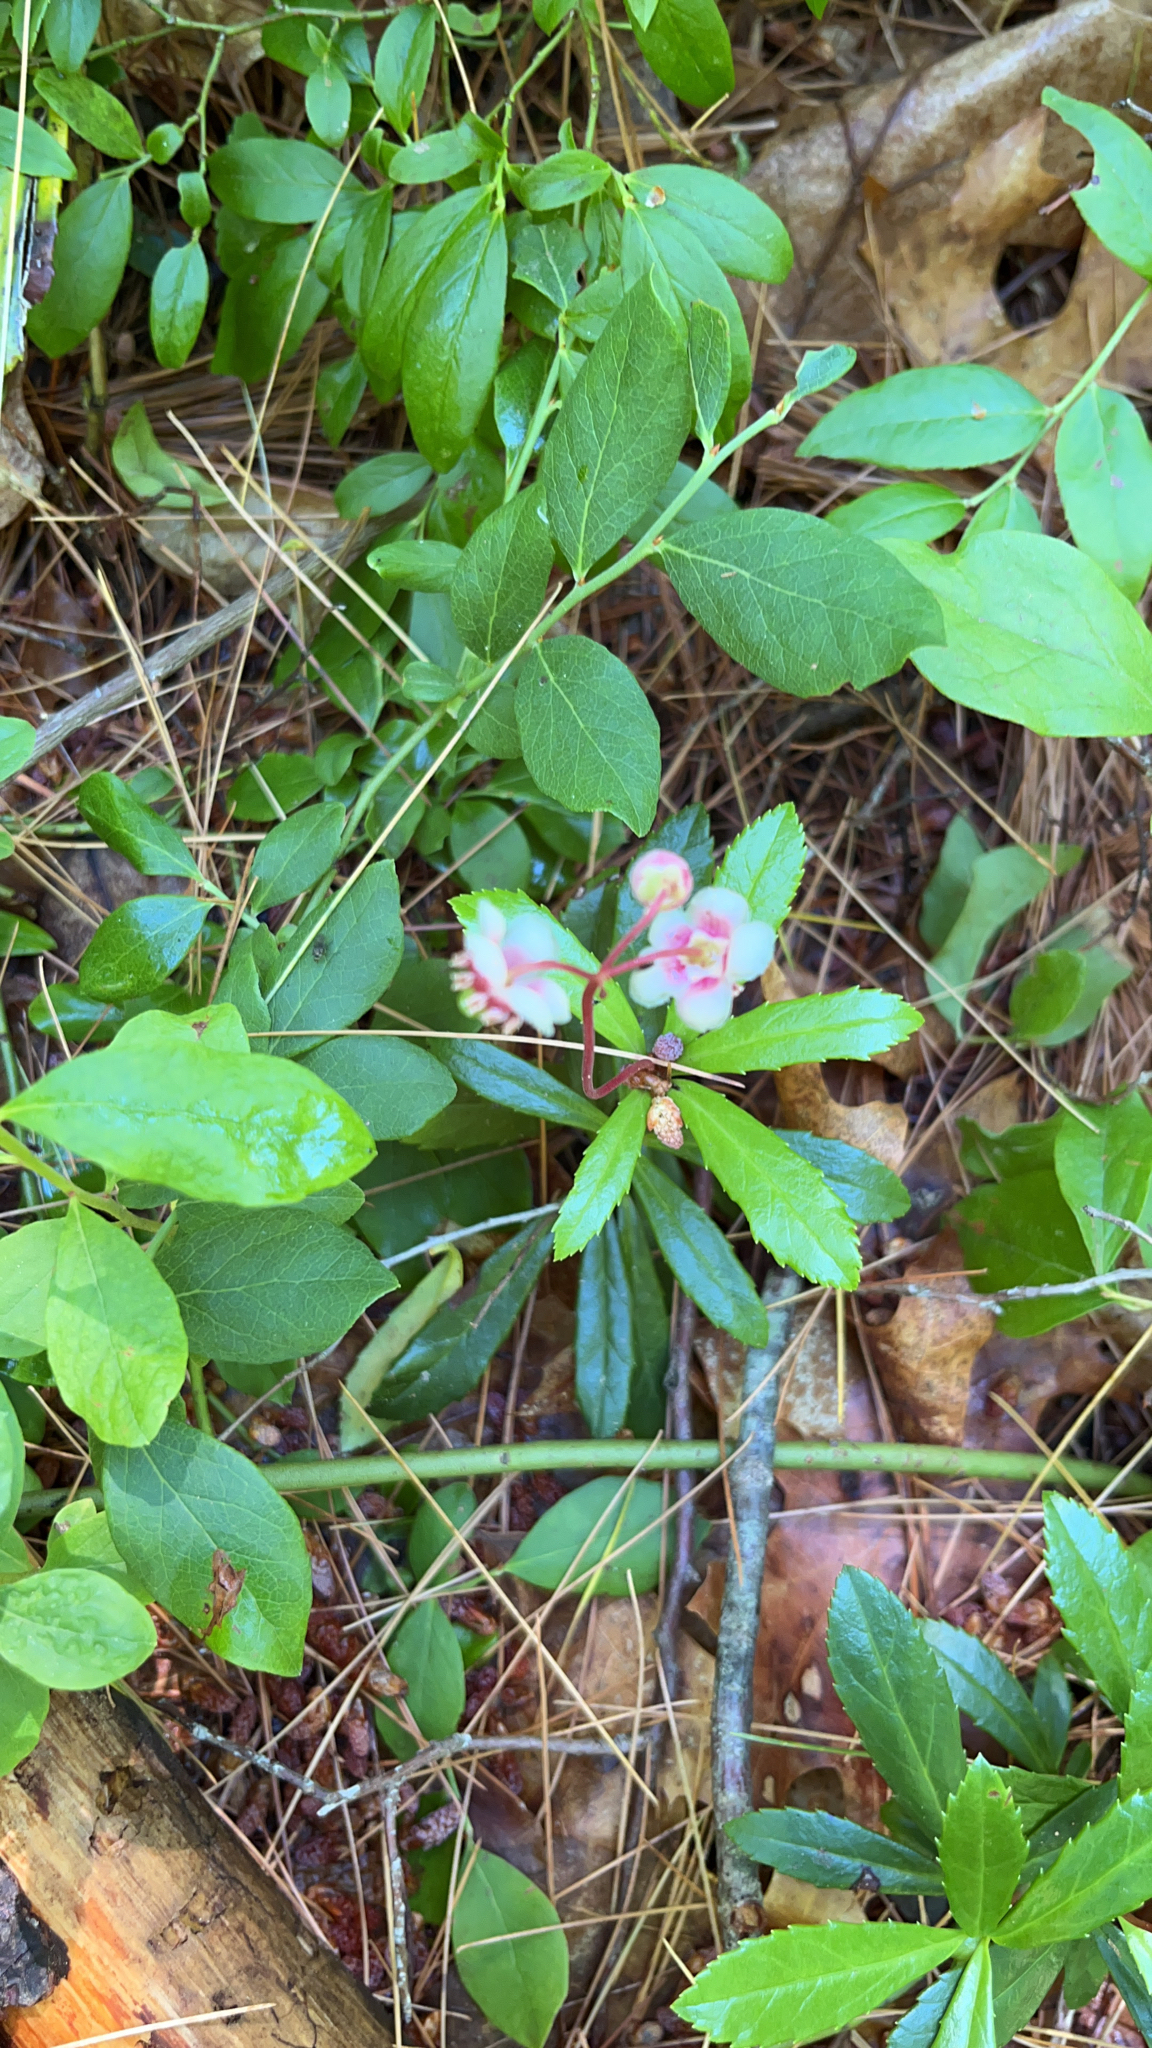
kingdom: Plantae
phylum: Tracheophyta
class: Magnoliopsida
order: Ericales
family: Ericaceae
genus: Chimaphila
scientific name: Chimaphila umbellata
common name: Pipsissewa
